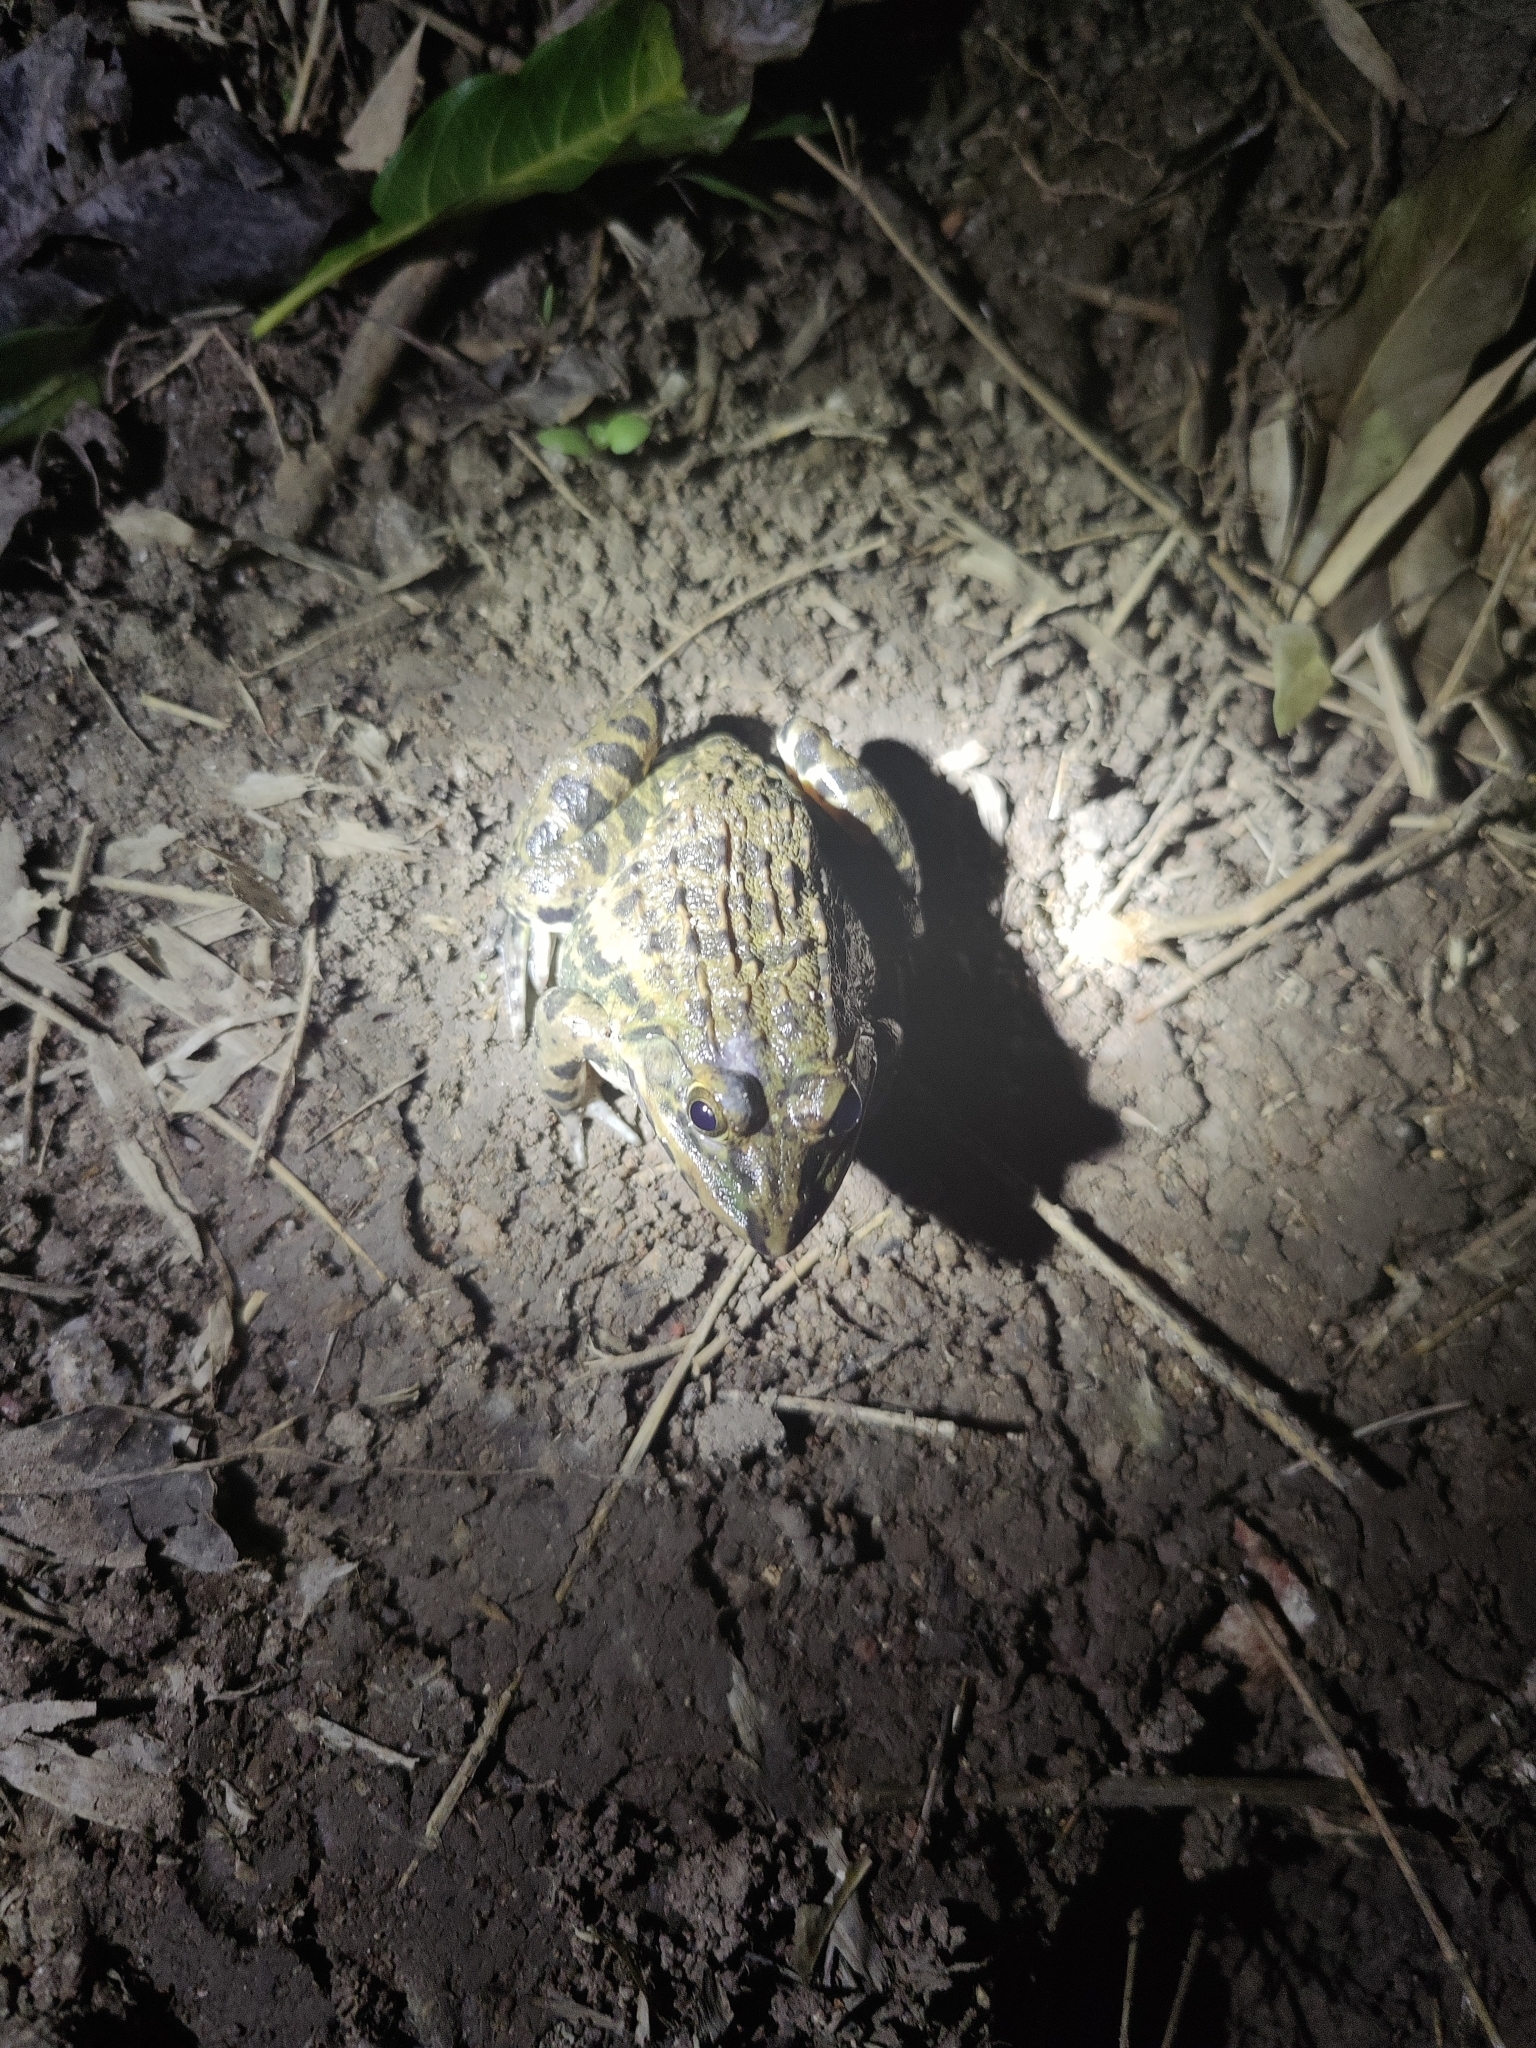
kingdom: Animalia
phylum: Chordata
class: Amphibia
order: Anura
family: Dicroglossidae
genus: Hoplobatrachus
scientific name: Hoplobatrachus crassus
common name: Jerdon's bullfrog
